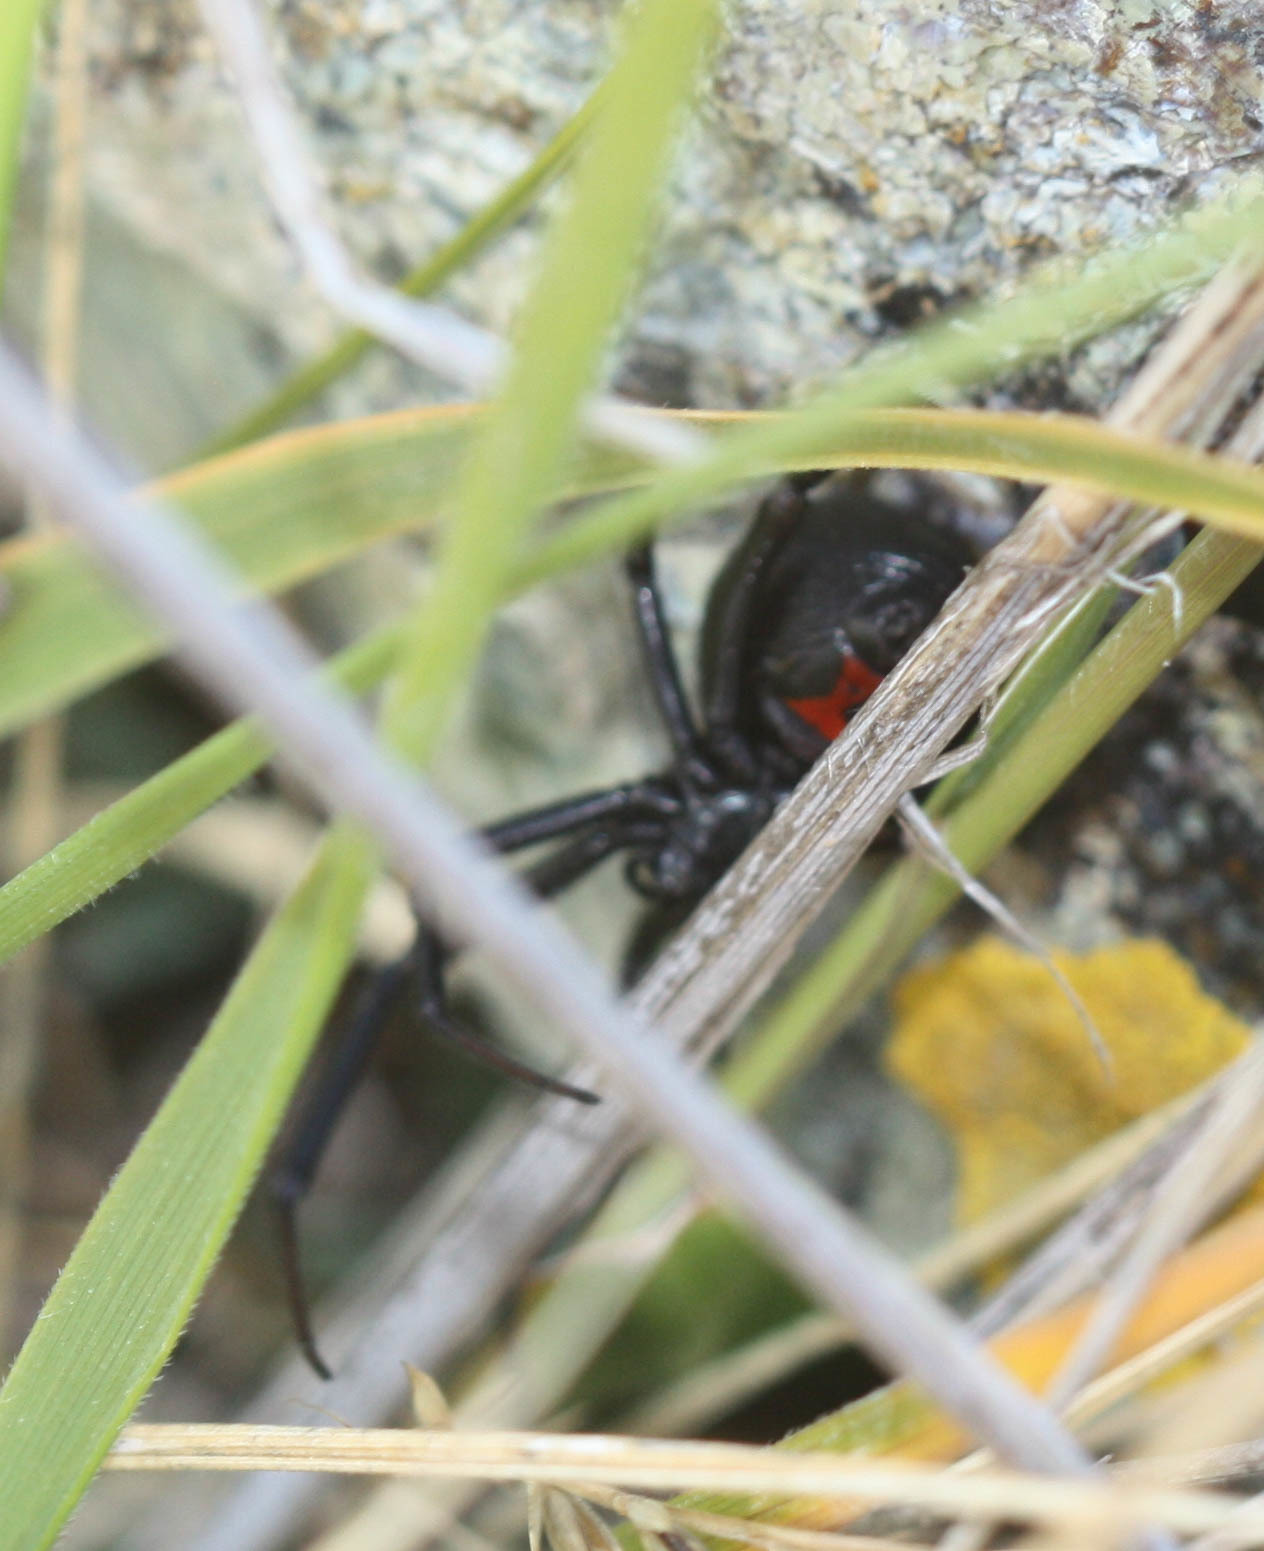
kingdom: Animalia
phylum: Arthropoda
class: Arachnida
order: Araneae
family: Theridiidae
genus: Latrodectus
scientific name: Latrodectus hesperus
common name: Western black widow
